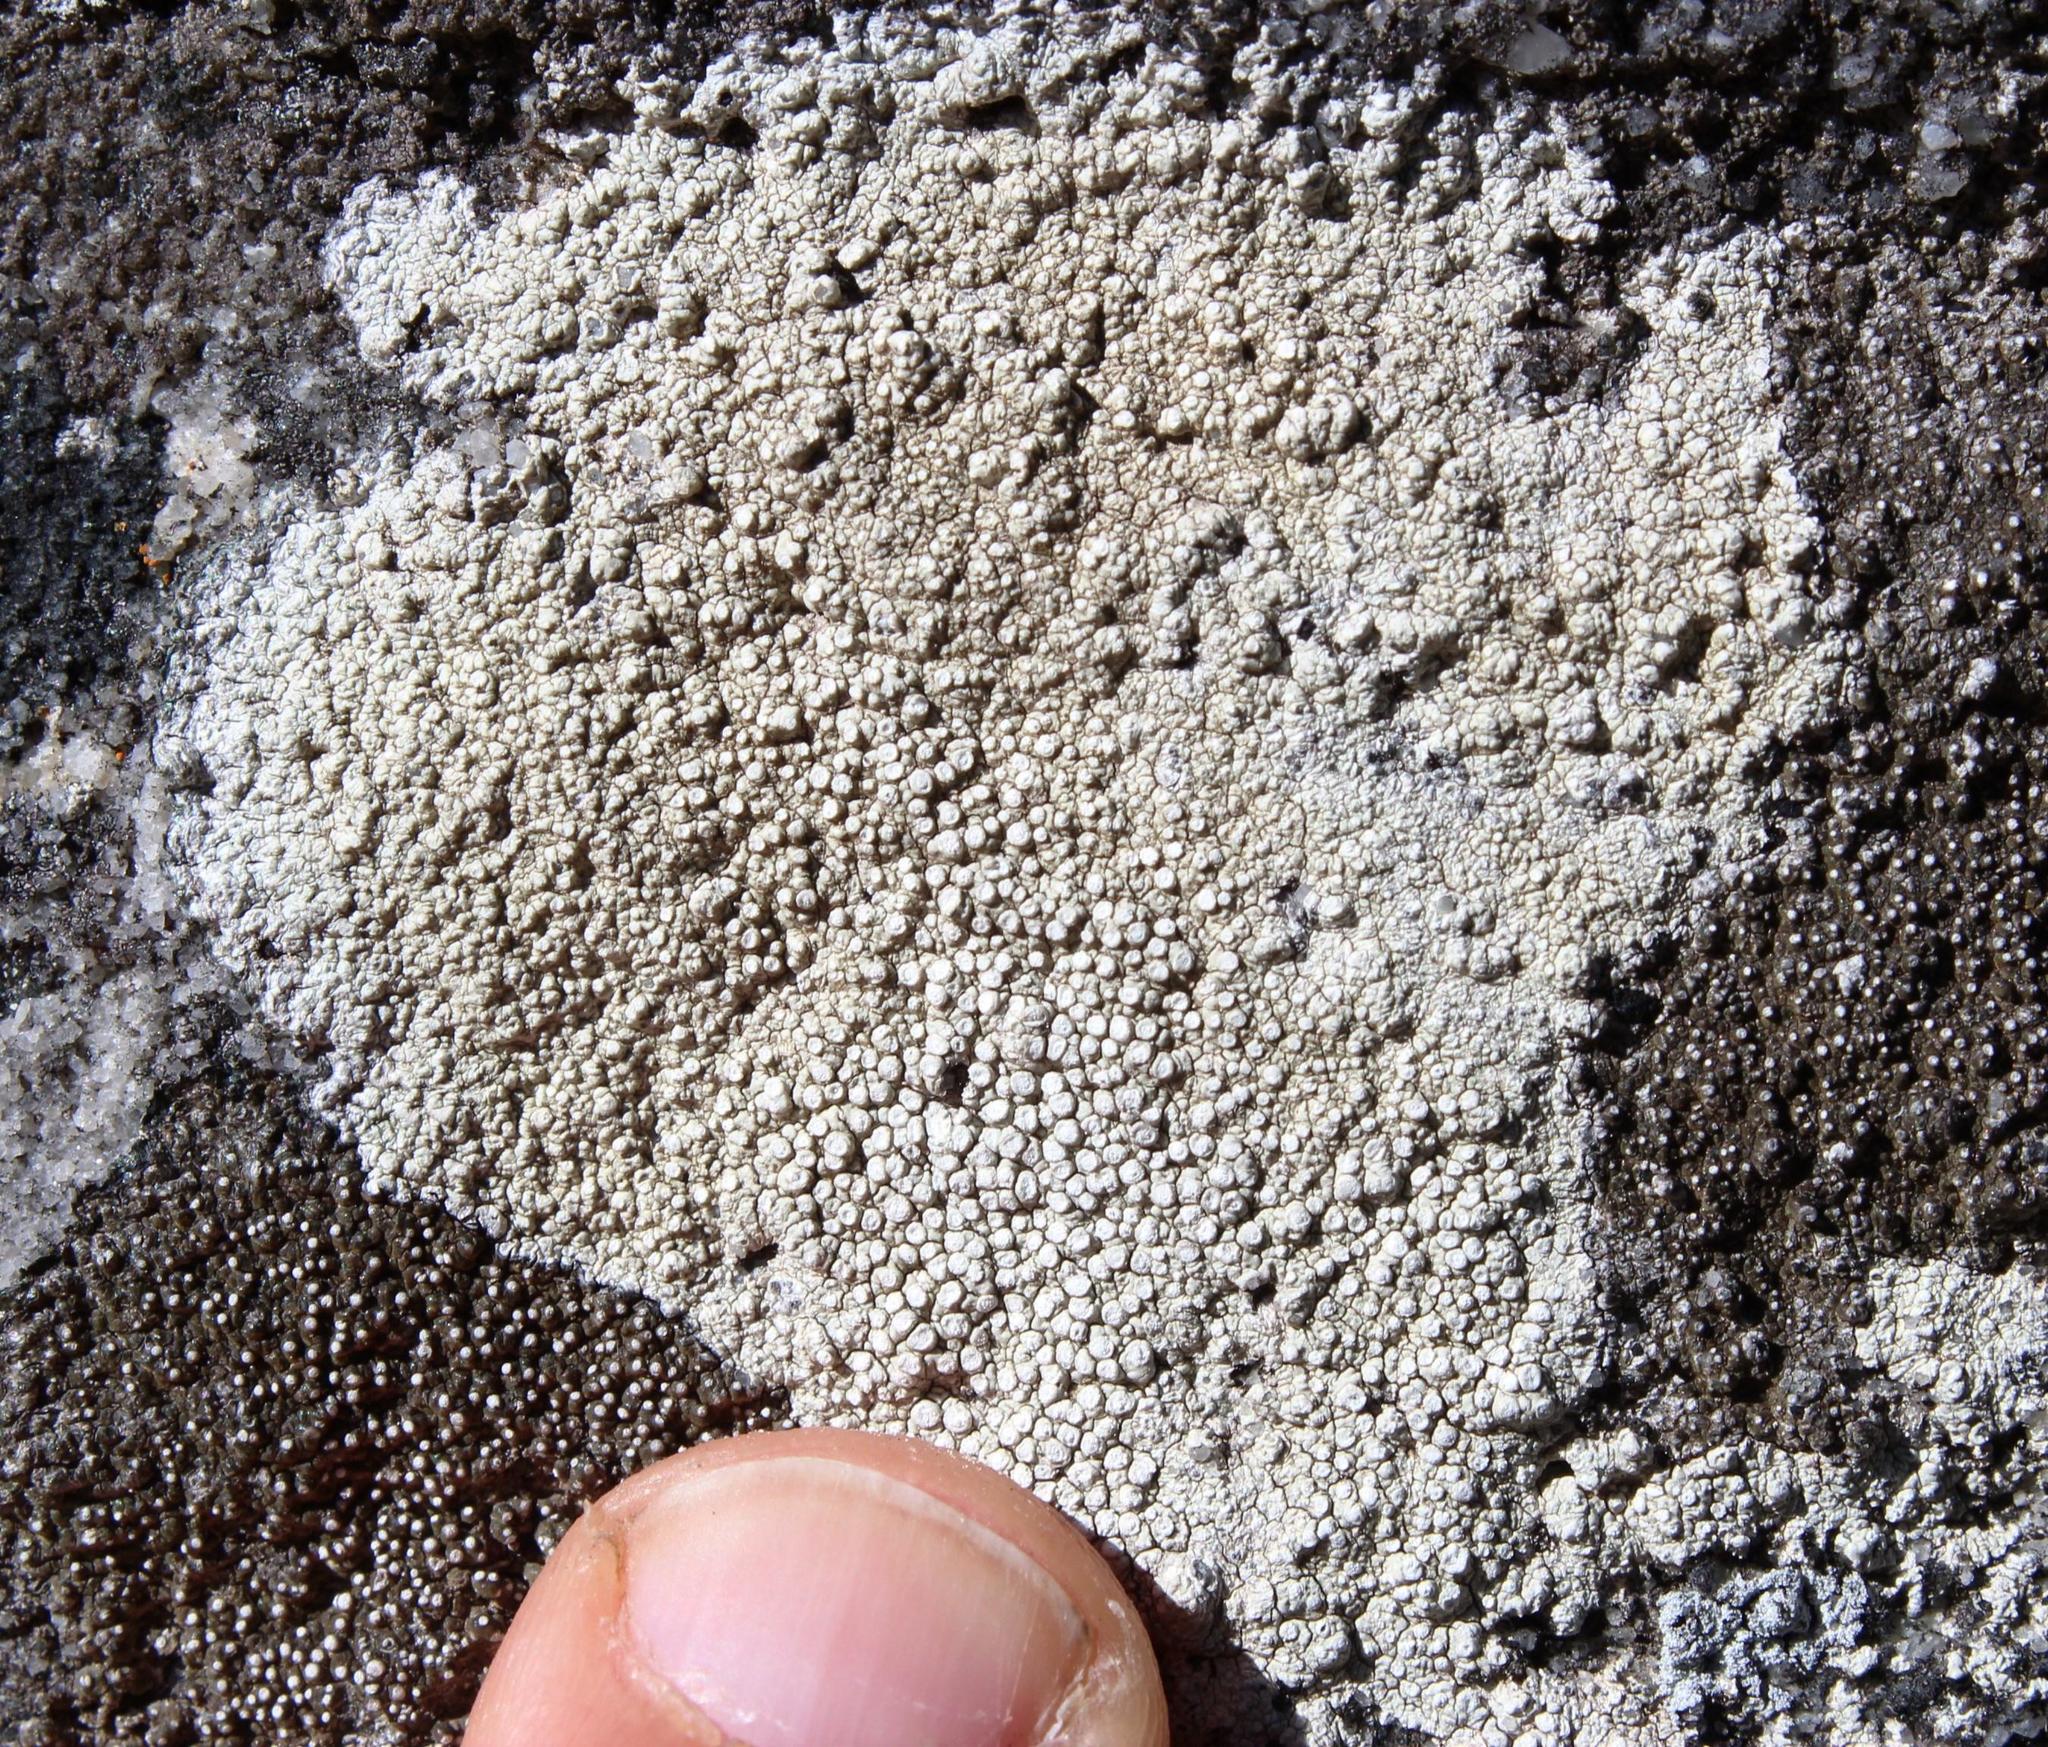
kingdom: Fungi
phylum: Ascomycota
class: Lecanoromycetes
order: Pertusariales
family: Ochrolechiaceae
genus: Ochrolechia
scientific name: Ochrolechia parella
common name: Crab's eye lichen
